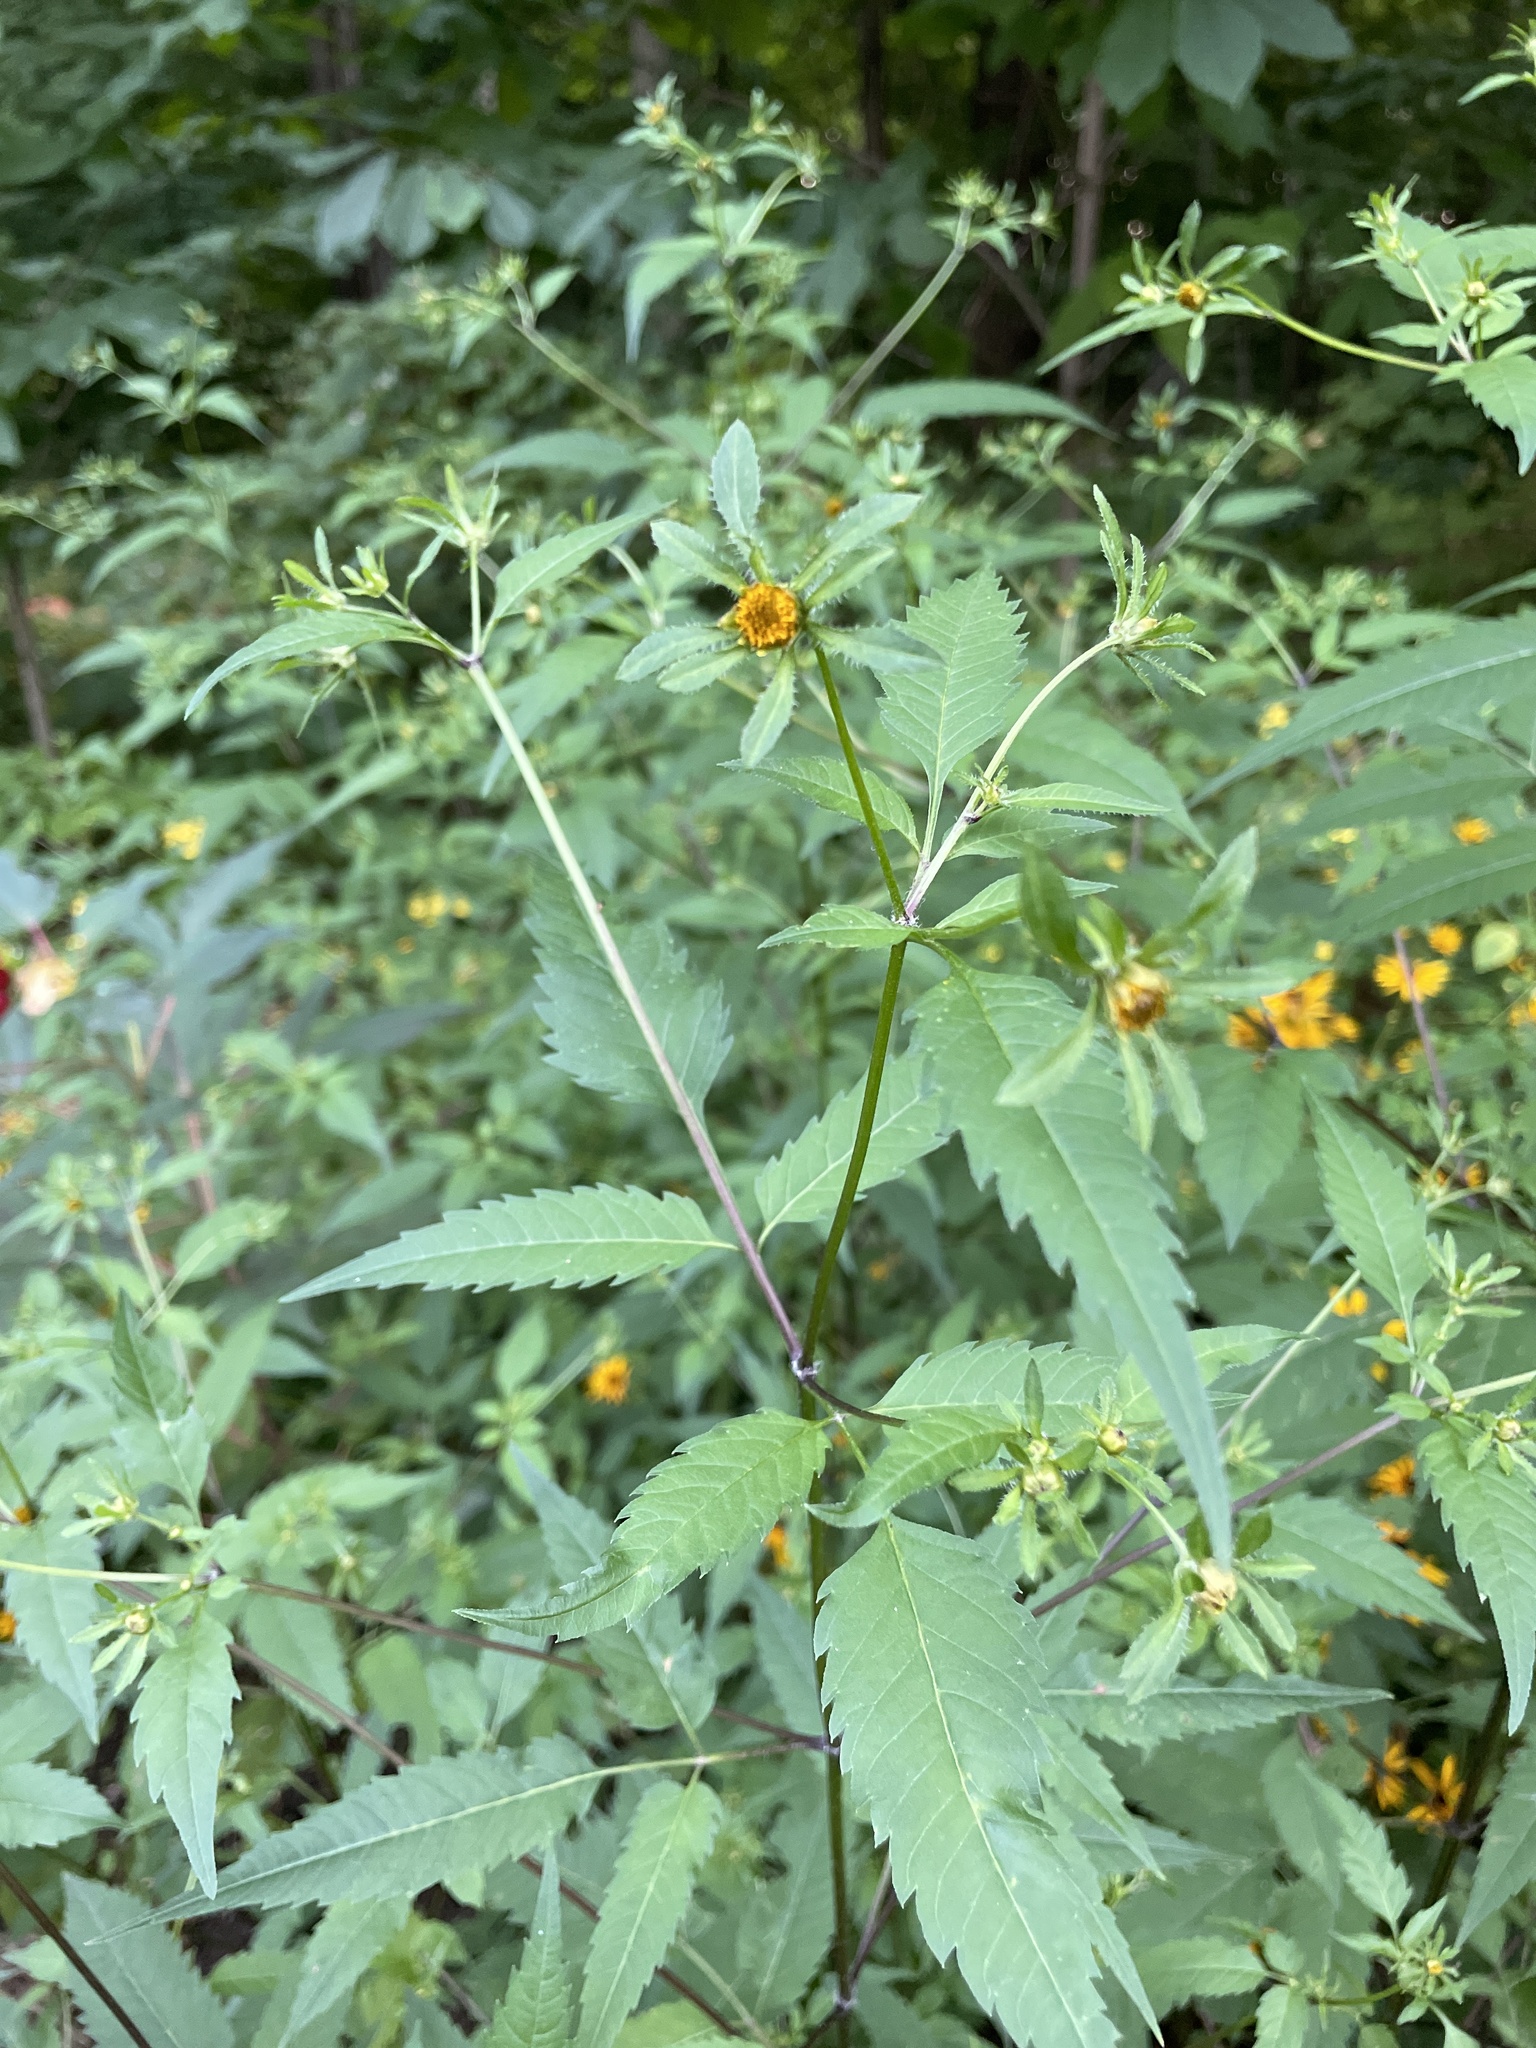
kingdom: Plantae
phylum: Tracheophyta
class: Magnoliopsida
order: Asterales
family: Asteraceae
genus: Bidens
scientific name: Bidens frondosa
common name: Beggarticks
